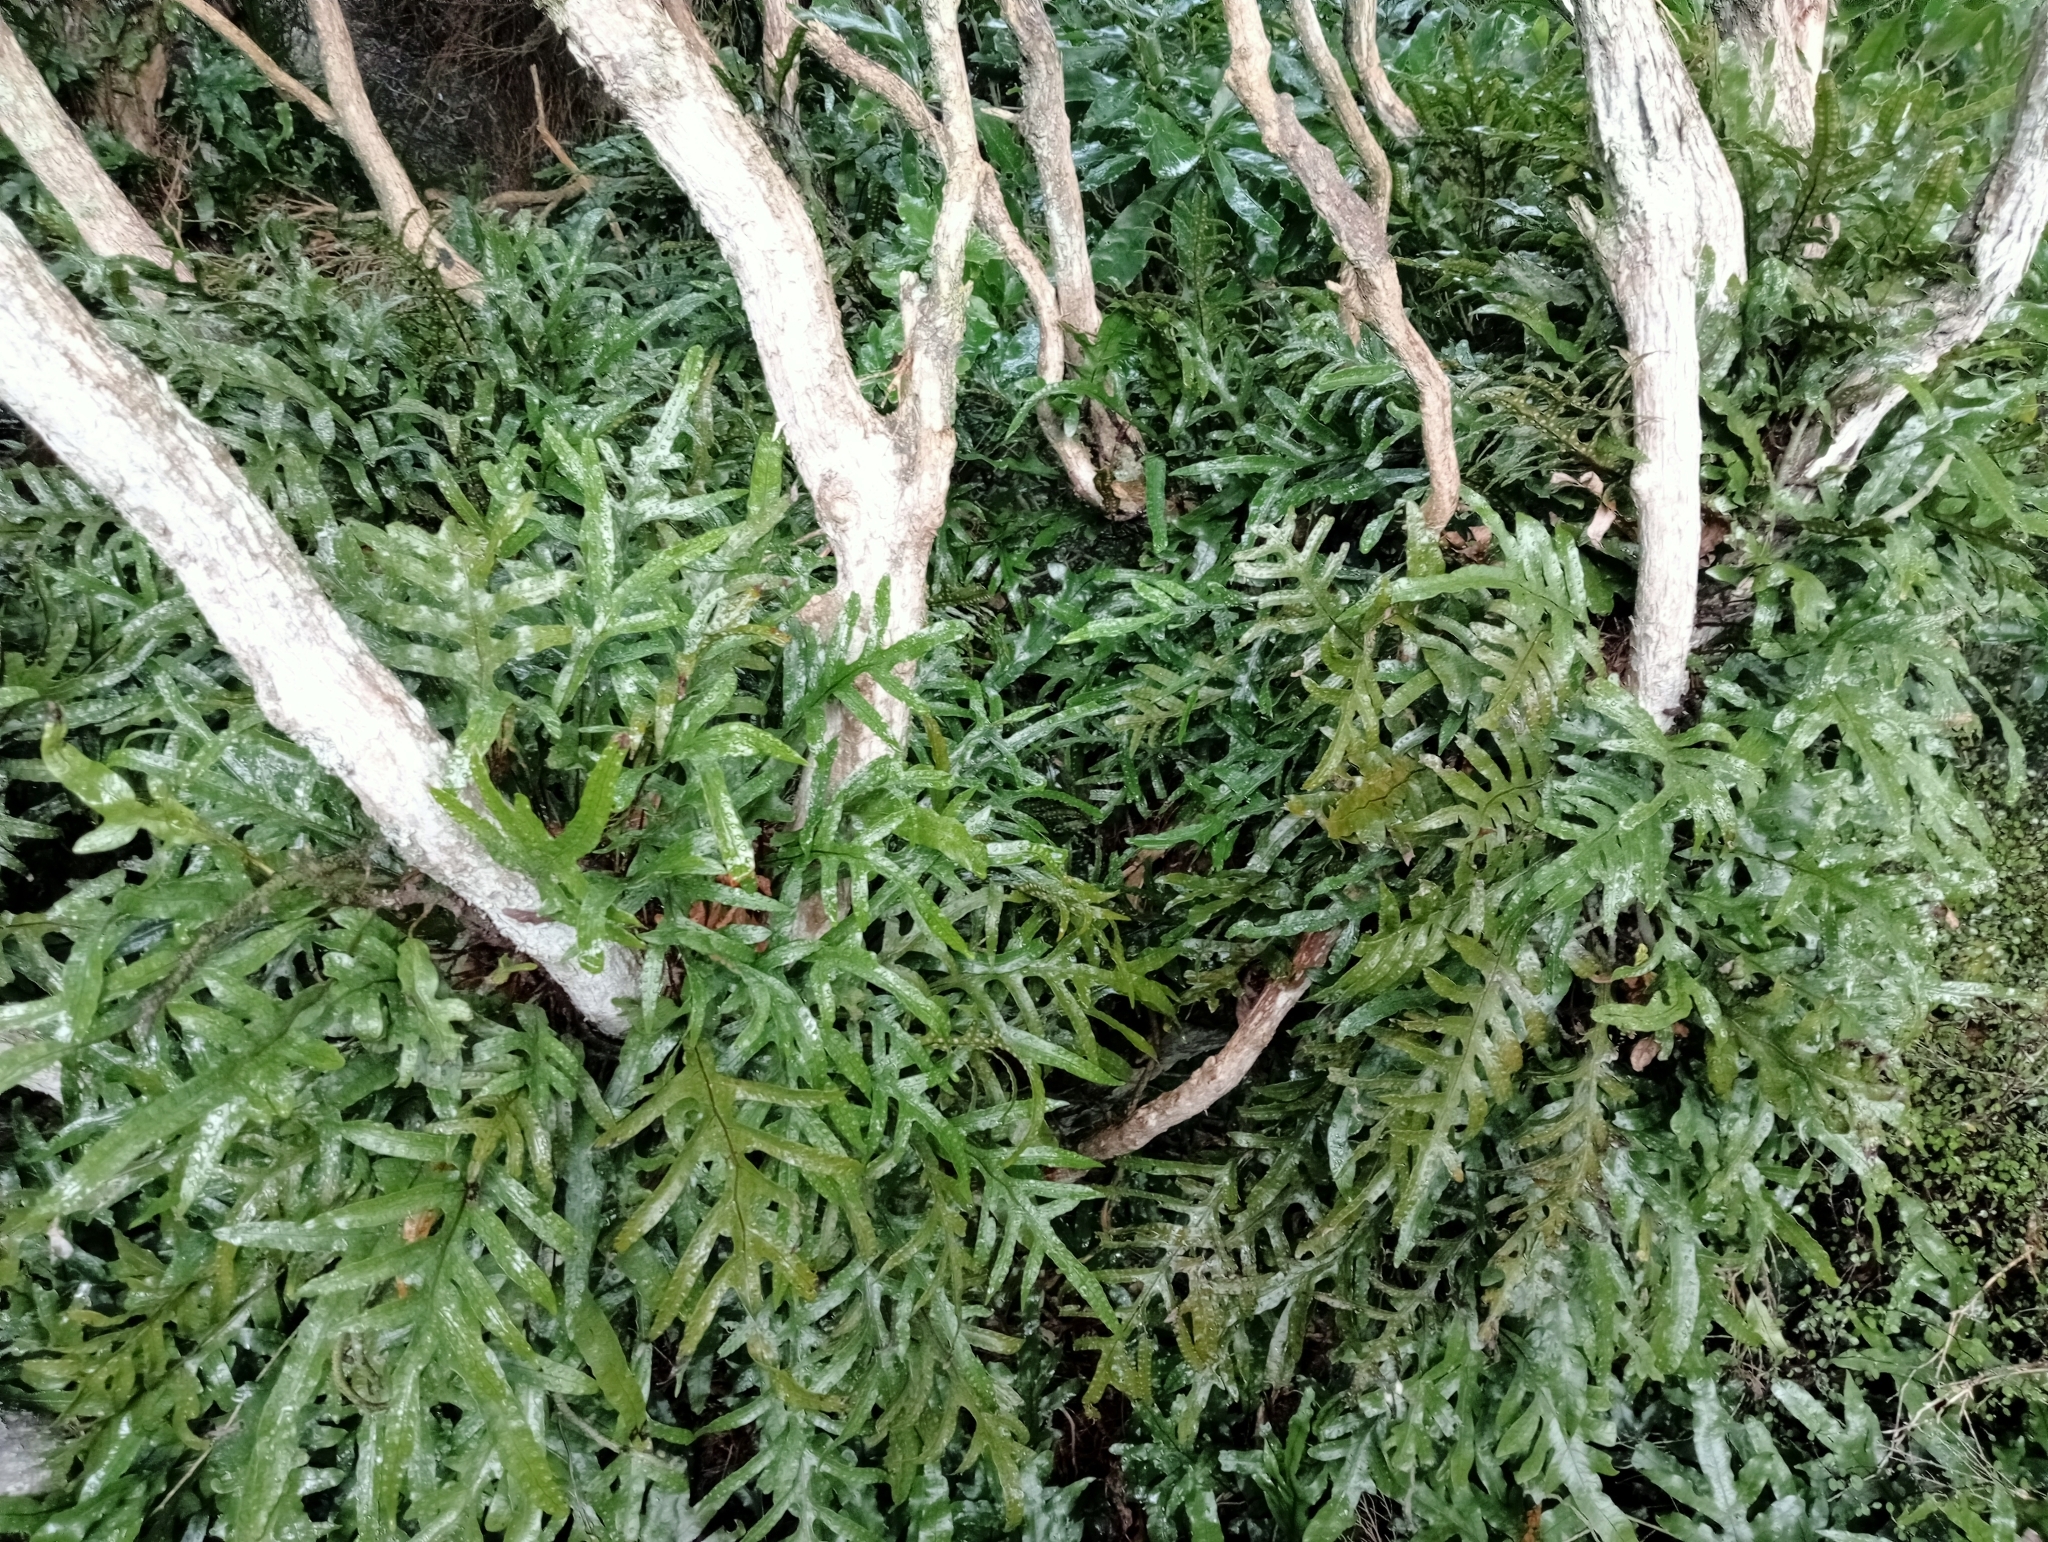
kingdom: Plantae
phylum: Tracheophyta
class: Polypodiopsida
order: Polypodiales
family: Polypodiaceae
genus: Lecanopteris
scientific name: Lecanopteris pustulata
